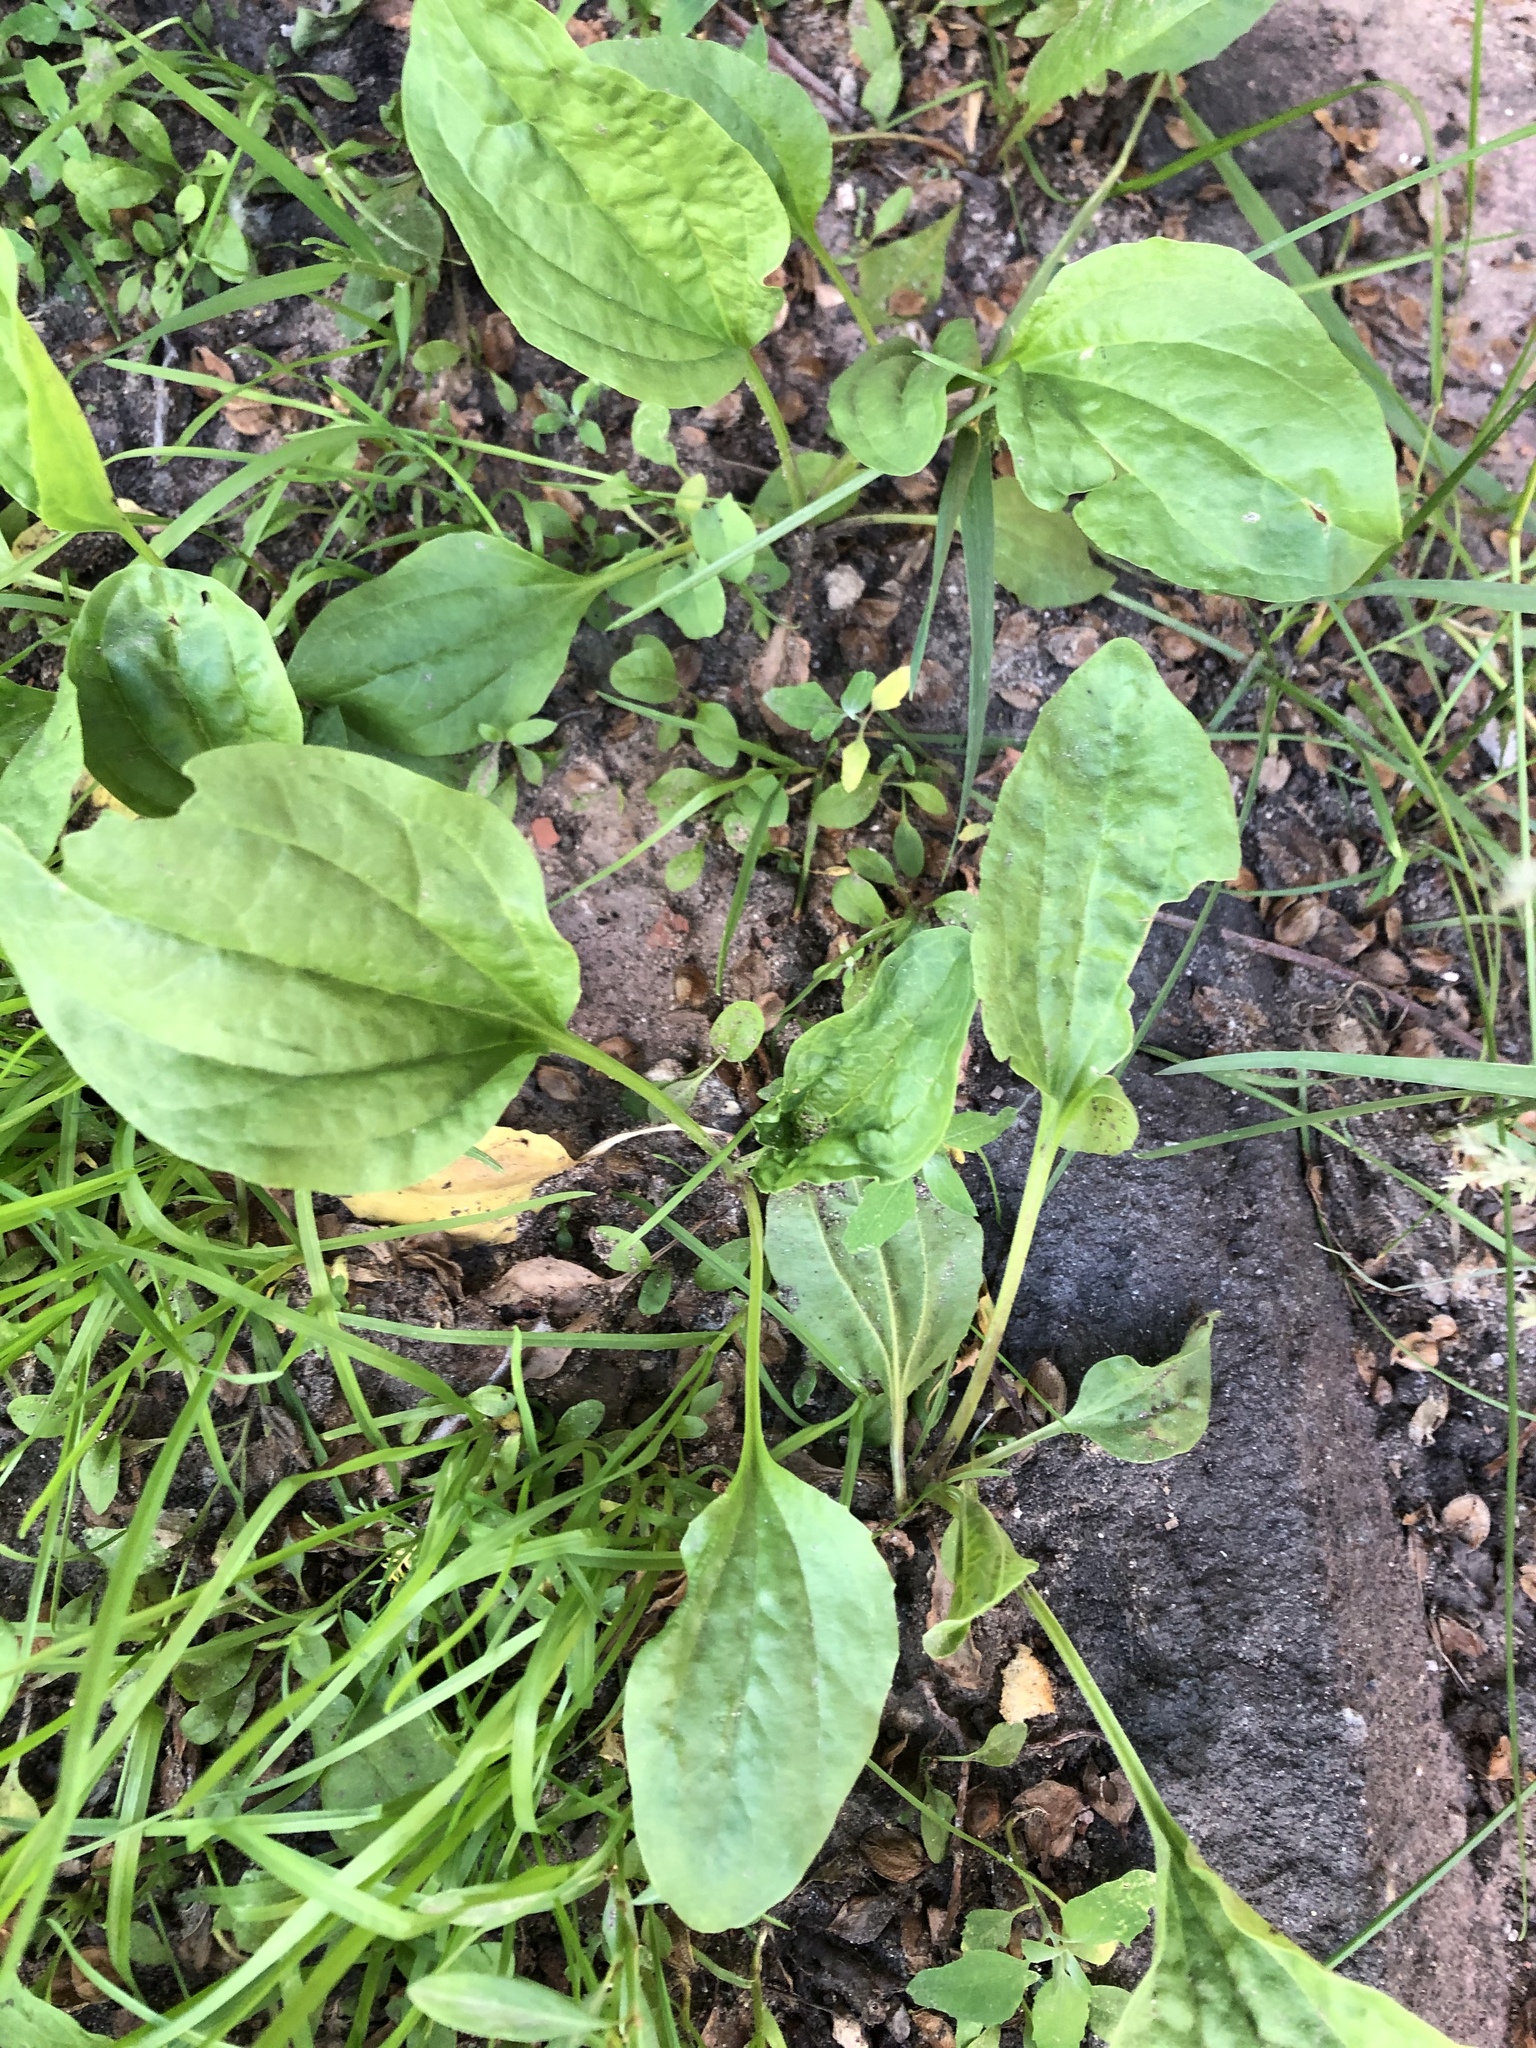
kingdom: Plantae
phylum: Tracheophyta
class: Magnoliopsida
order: Lamiales
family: Plantaginaceae
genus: Plantago
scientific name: Plantago major
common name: Common plantain
